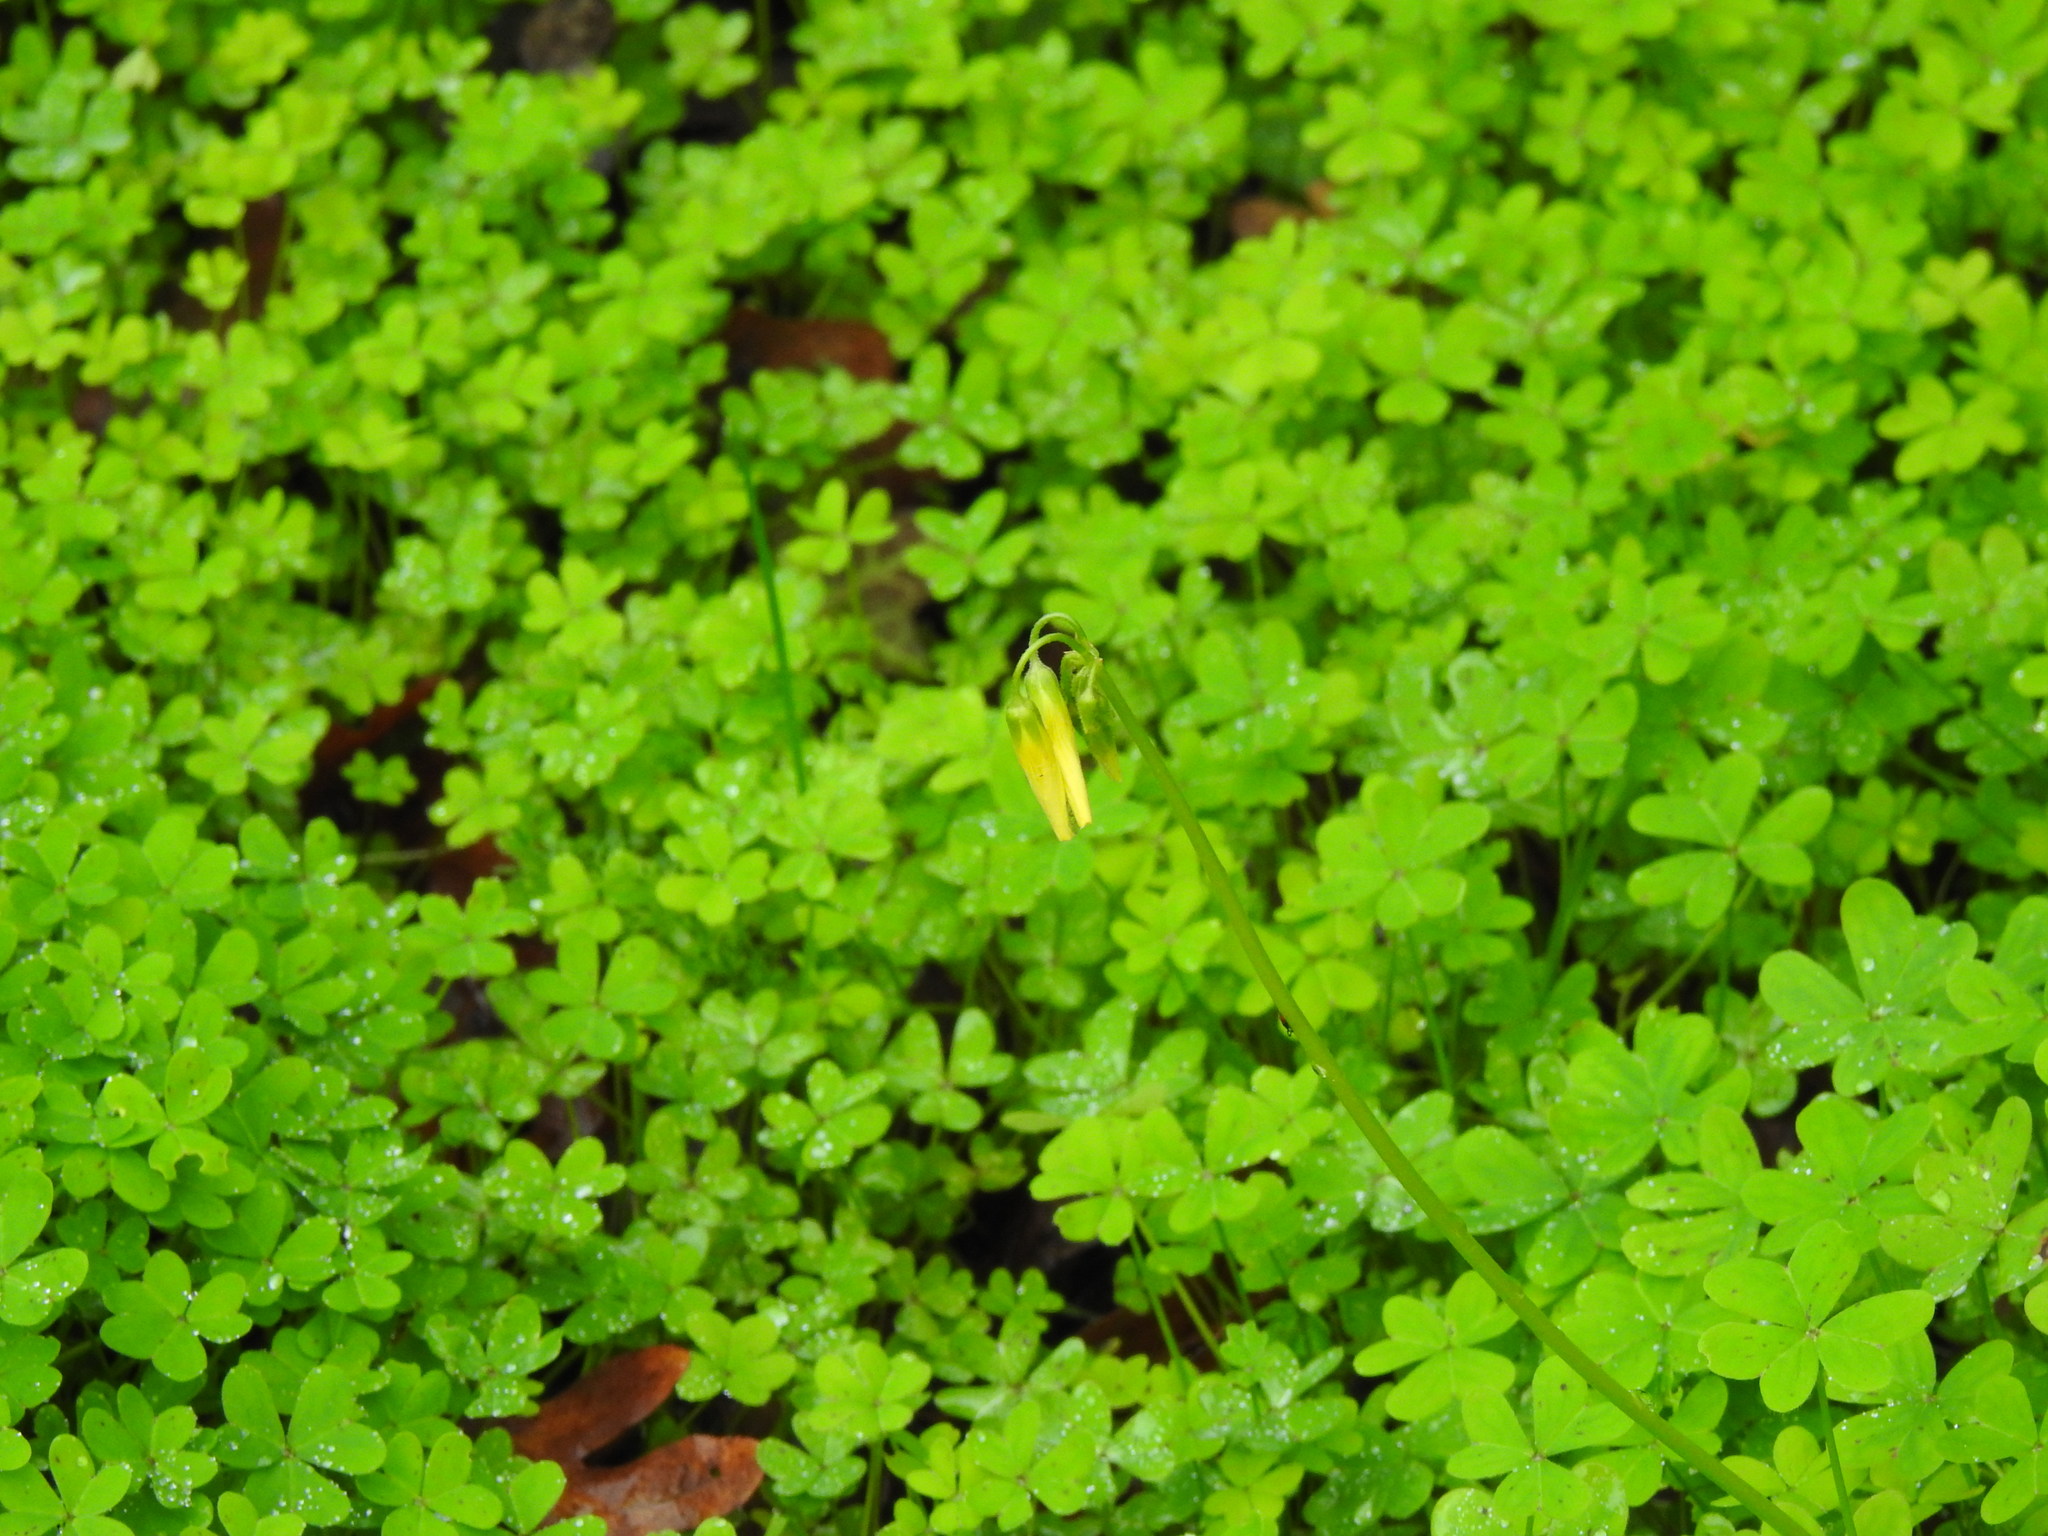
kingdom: Plantae
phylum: Tracheophyta
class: Magnoliopsida
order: Oxalidales
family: Oxalidaceae
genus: Oxalis
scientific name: Oxalis pes-caprae
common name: Bermuda-buttercup
